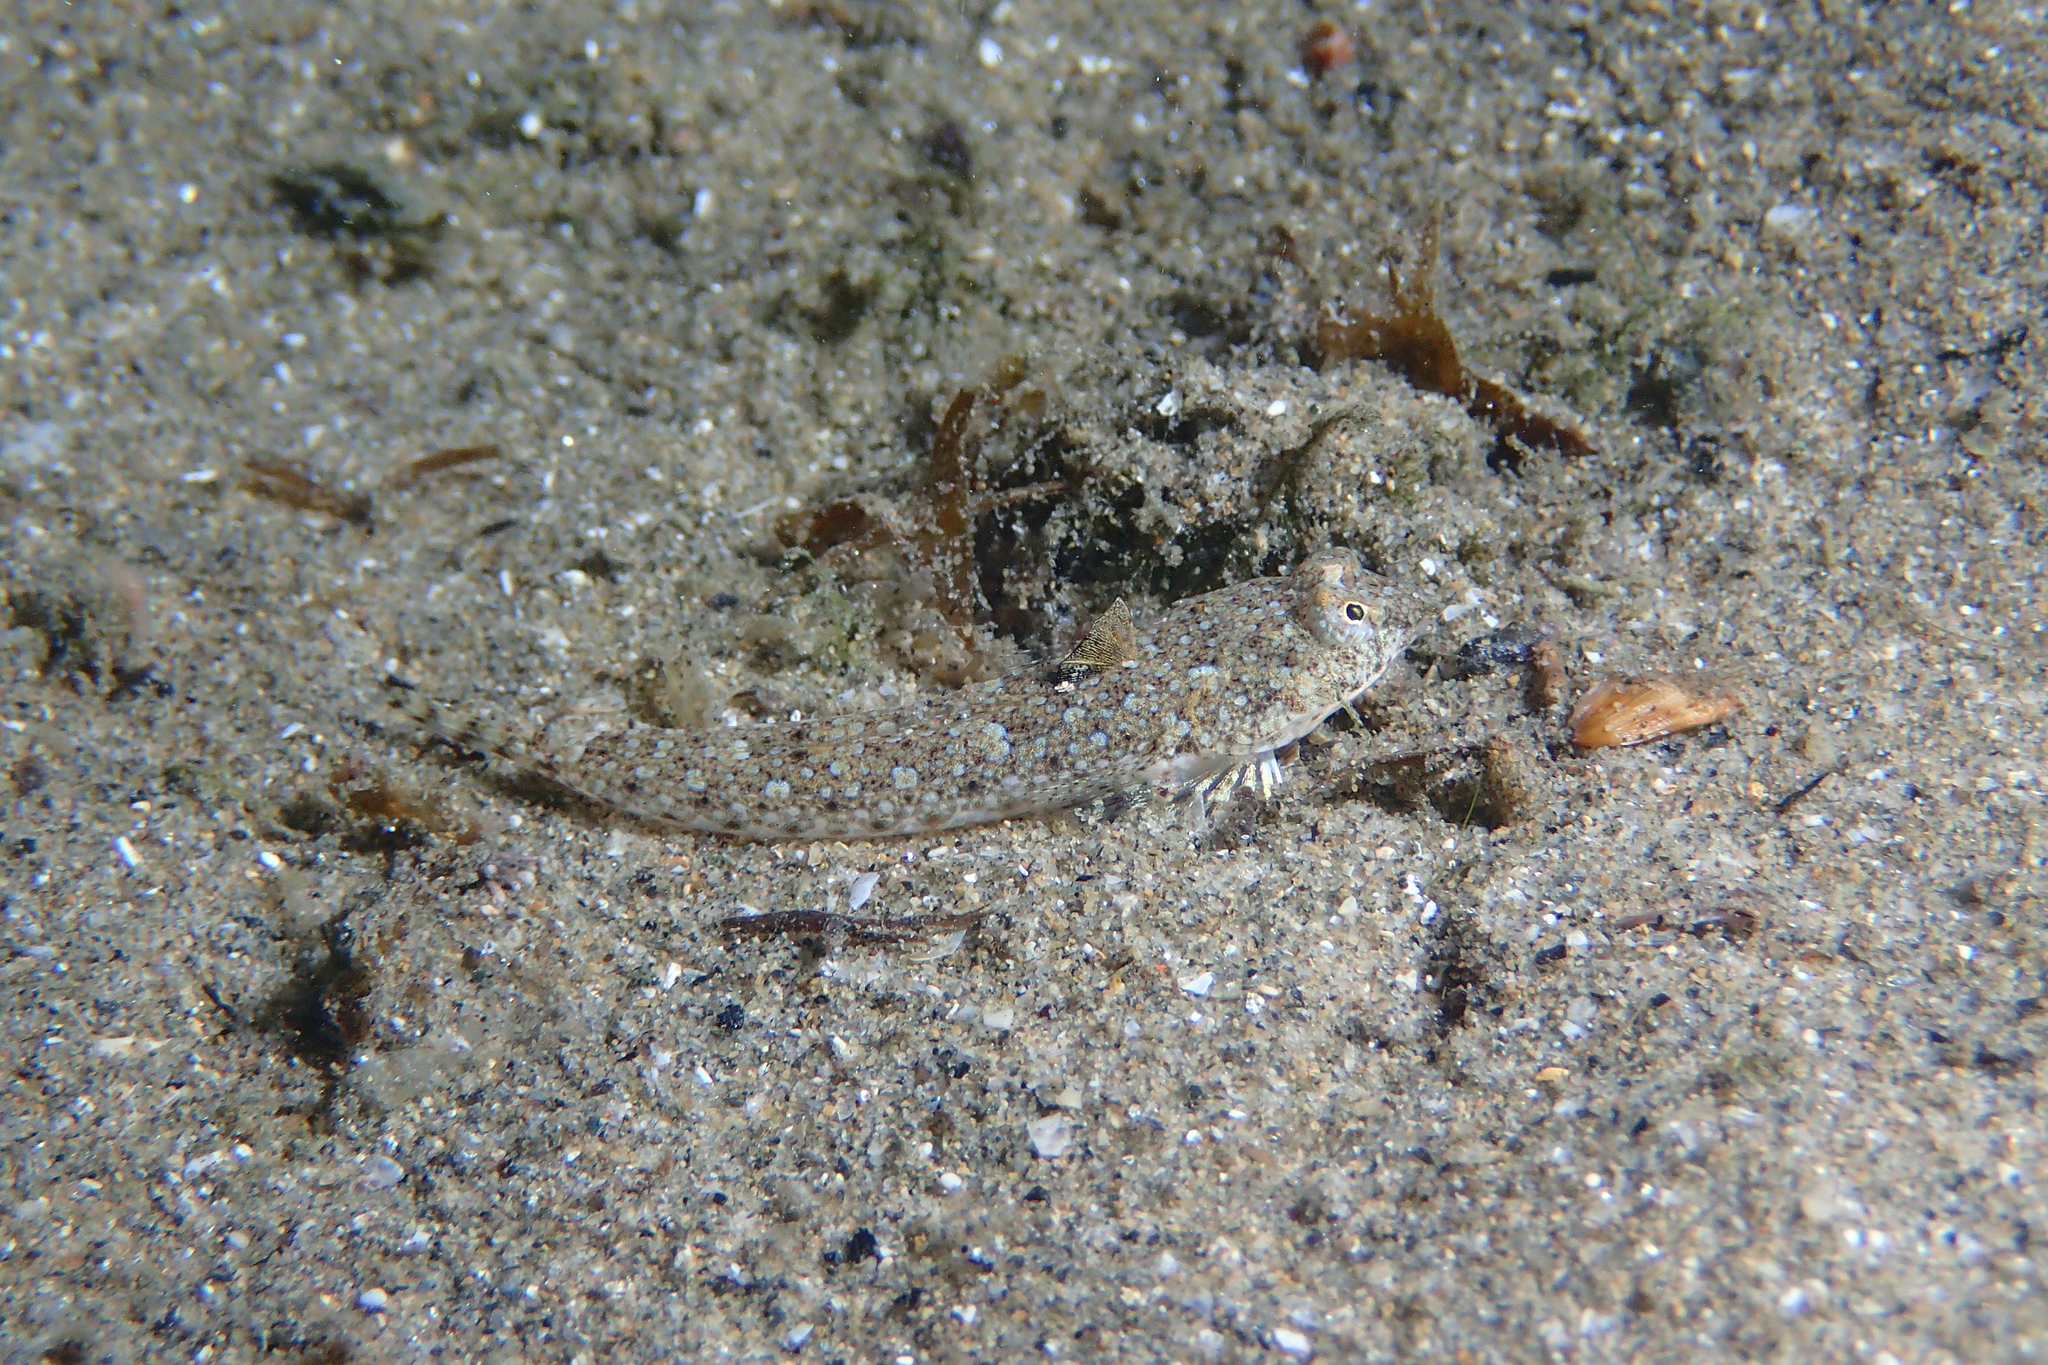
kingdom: Animalia
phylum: Chordata
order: Perciformes
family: Callionymidae
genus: Callionymus
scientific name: Callionymus risso
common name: Risso’s dragonet
